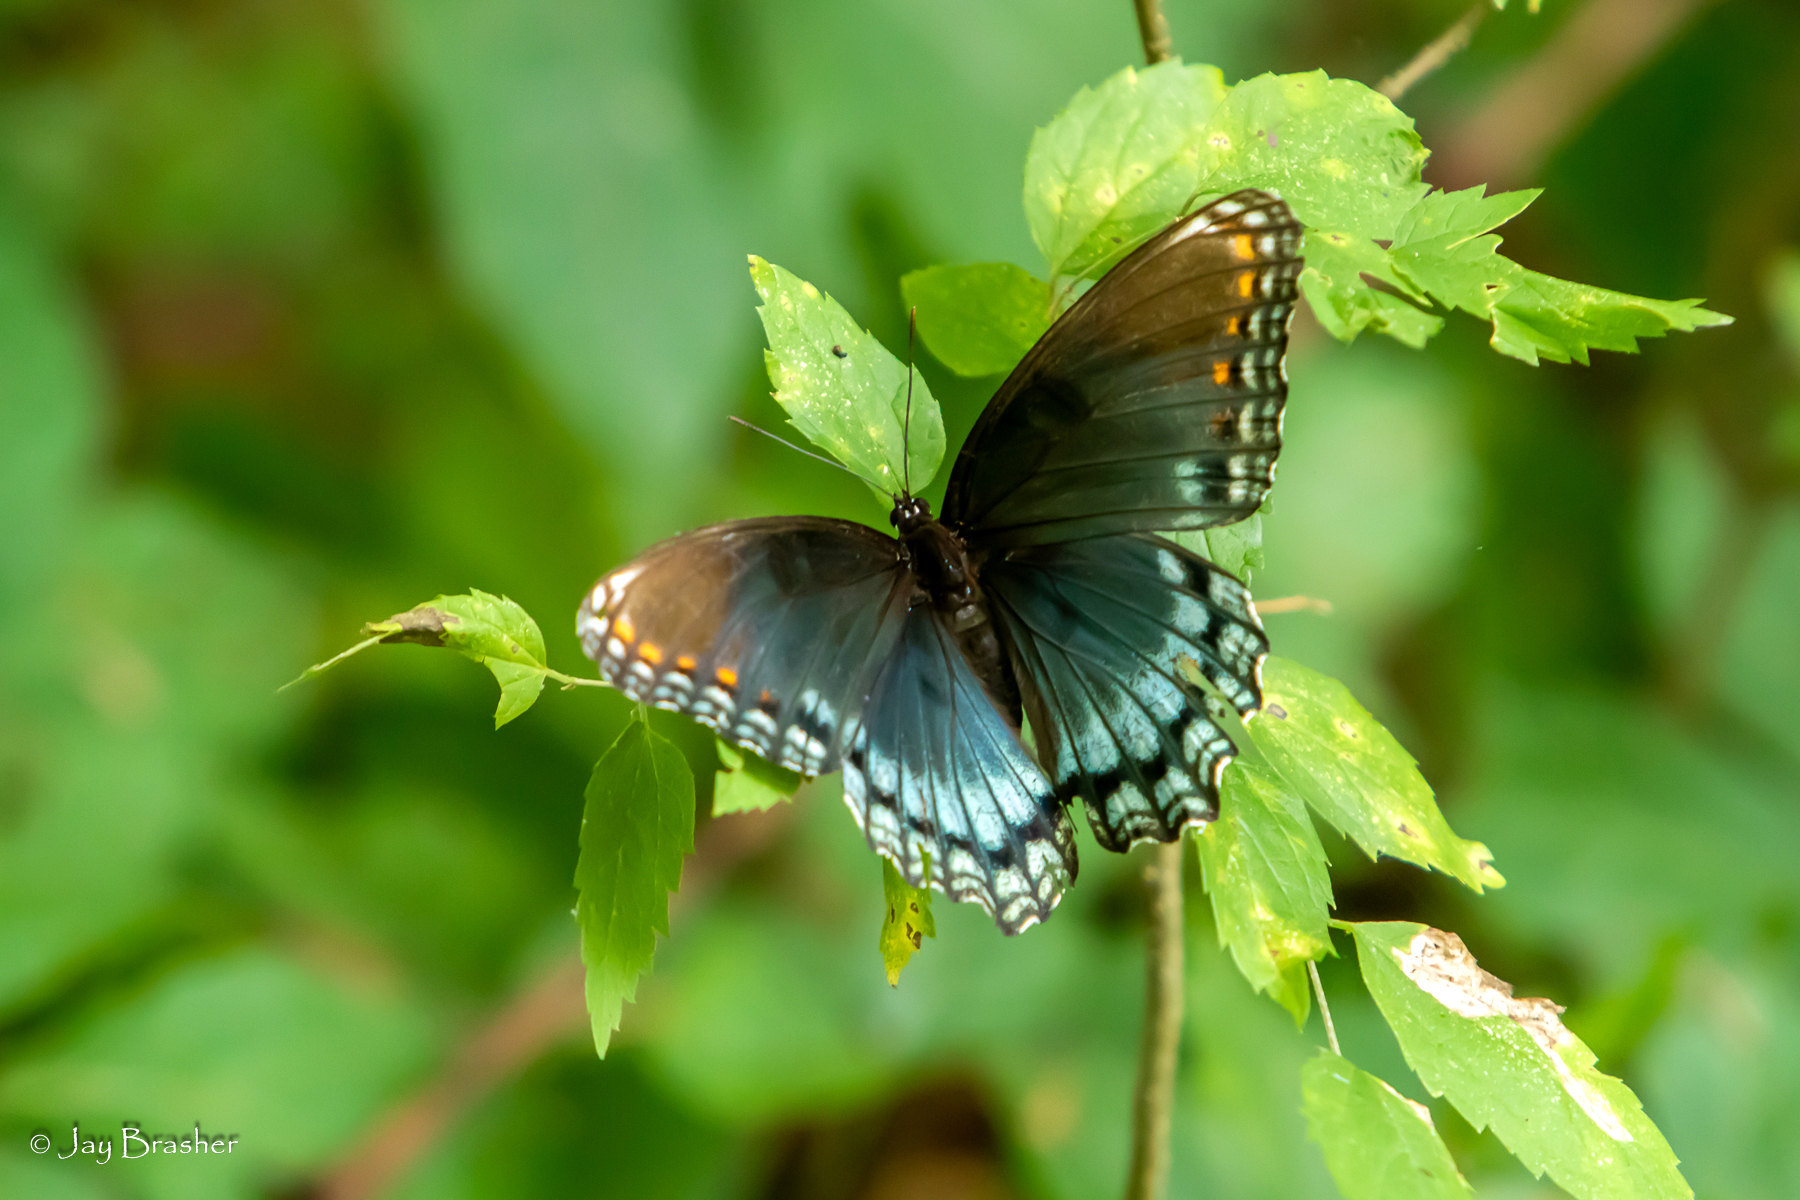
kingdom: Animalia
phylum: Arthropoda
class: Insecta
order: Lepidoptera
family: Nymphalidae
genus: Limenitis
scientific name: Limenitis astyanax
